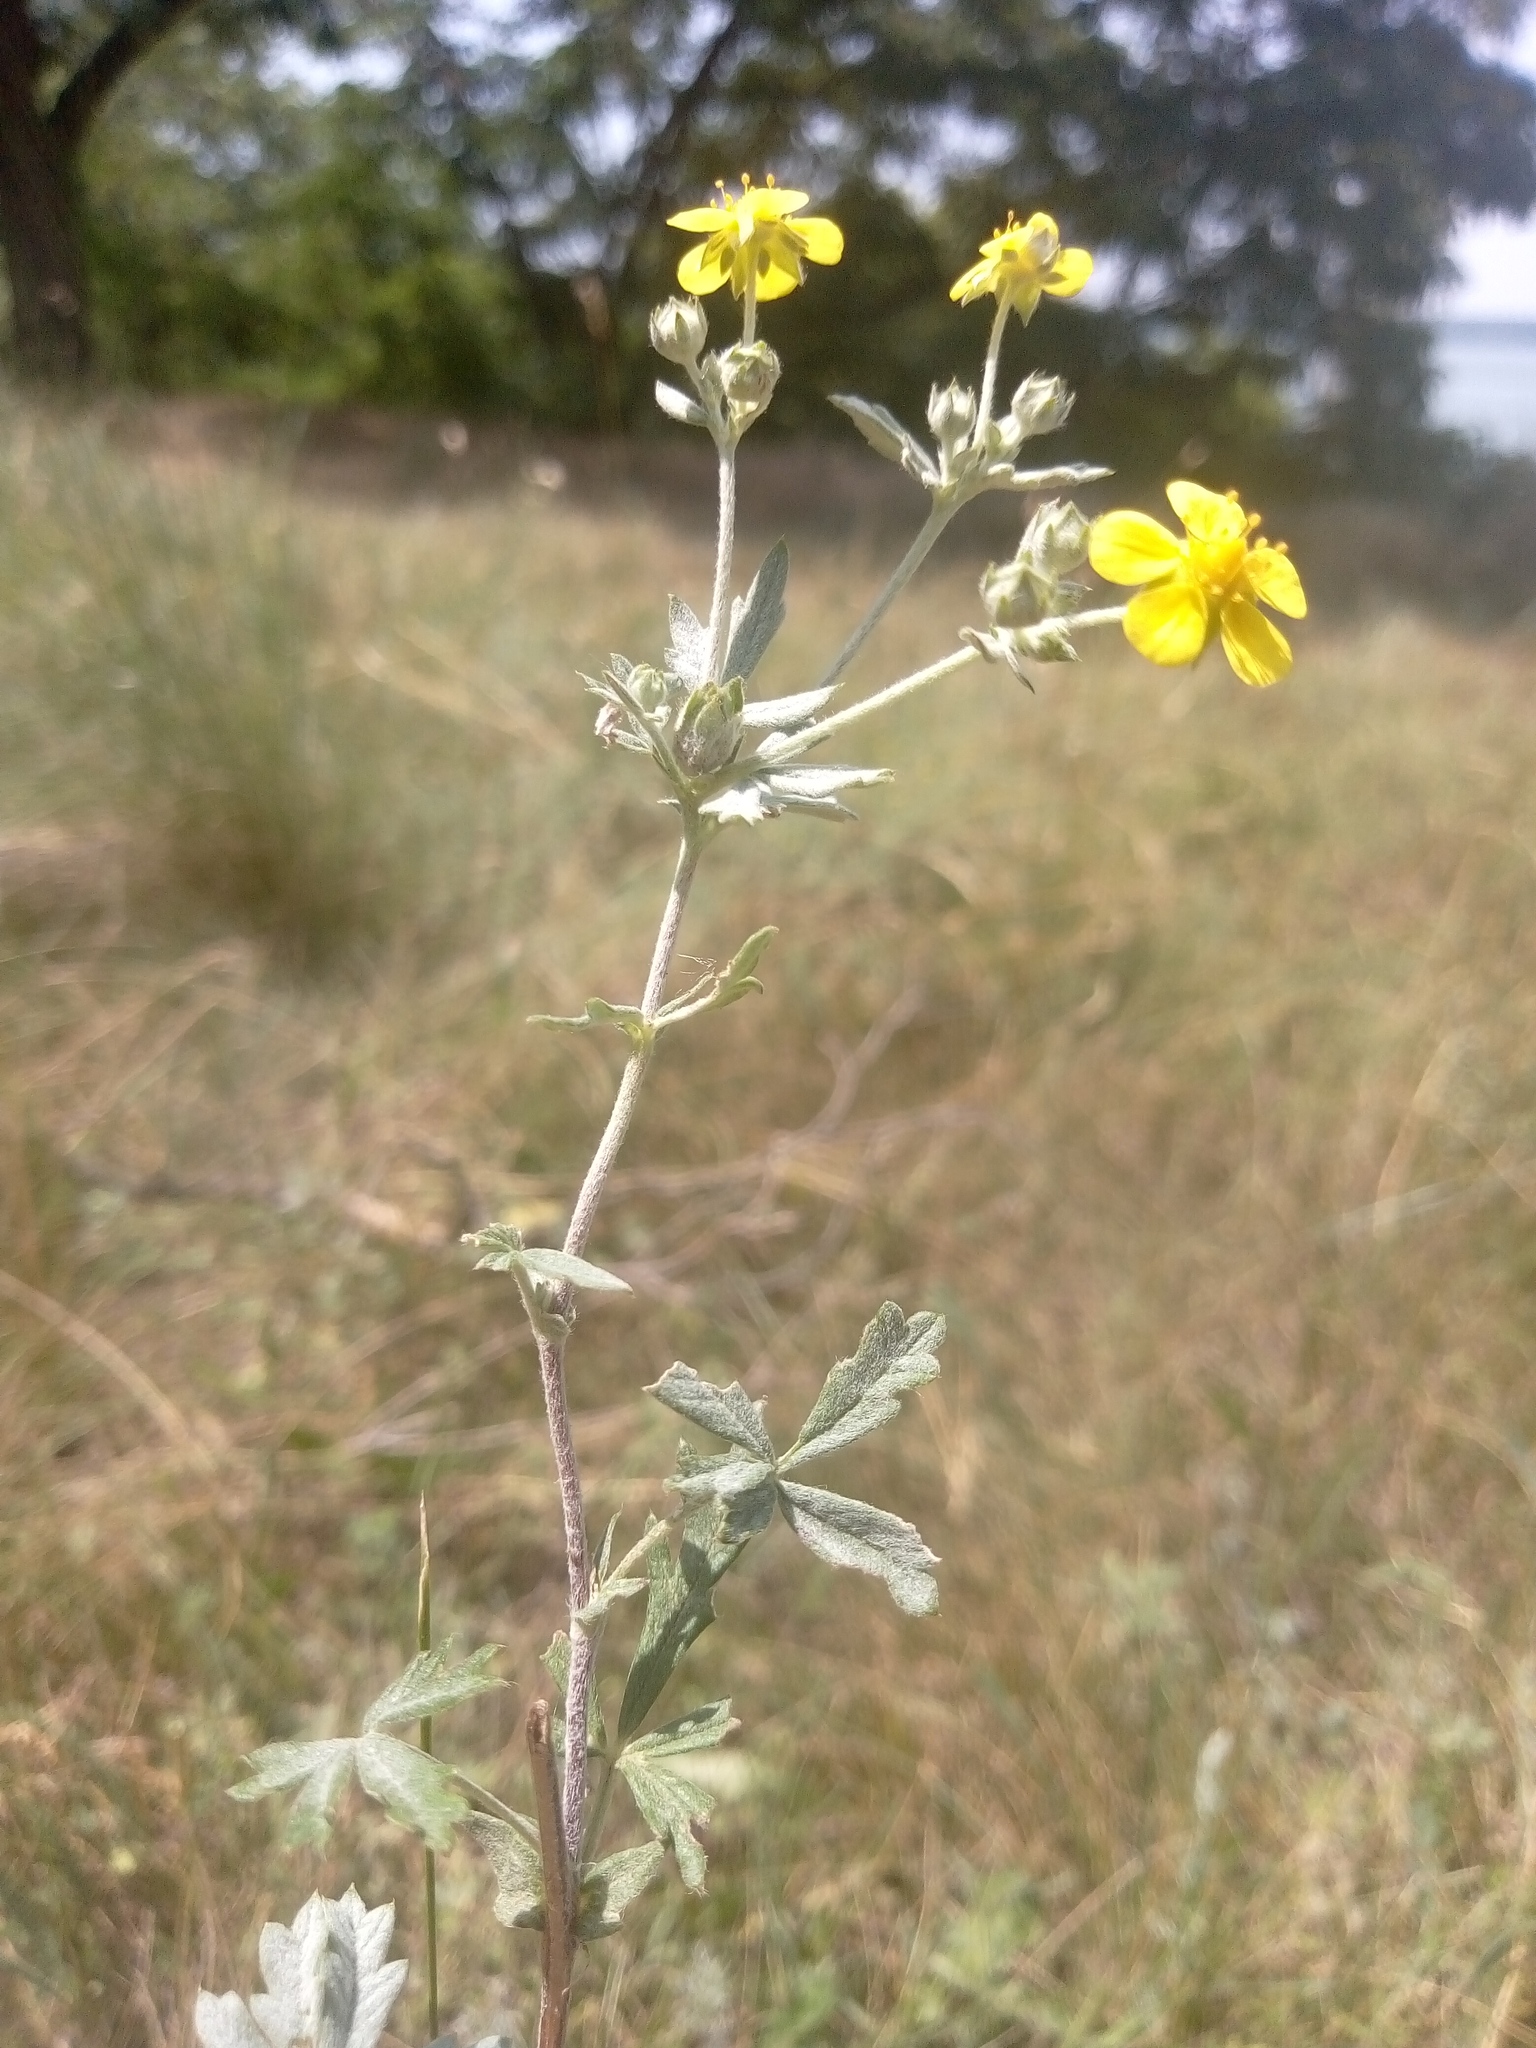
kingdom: Plantae
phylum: Tracheophyta
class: Magnoliopsida
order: Rosales
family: Rosaceae
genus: Potentilla
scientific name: Potentilla argentea
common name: Hoary cinquefoil
